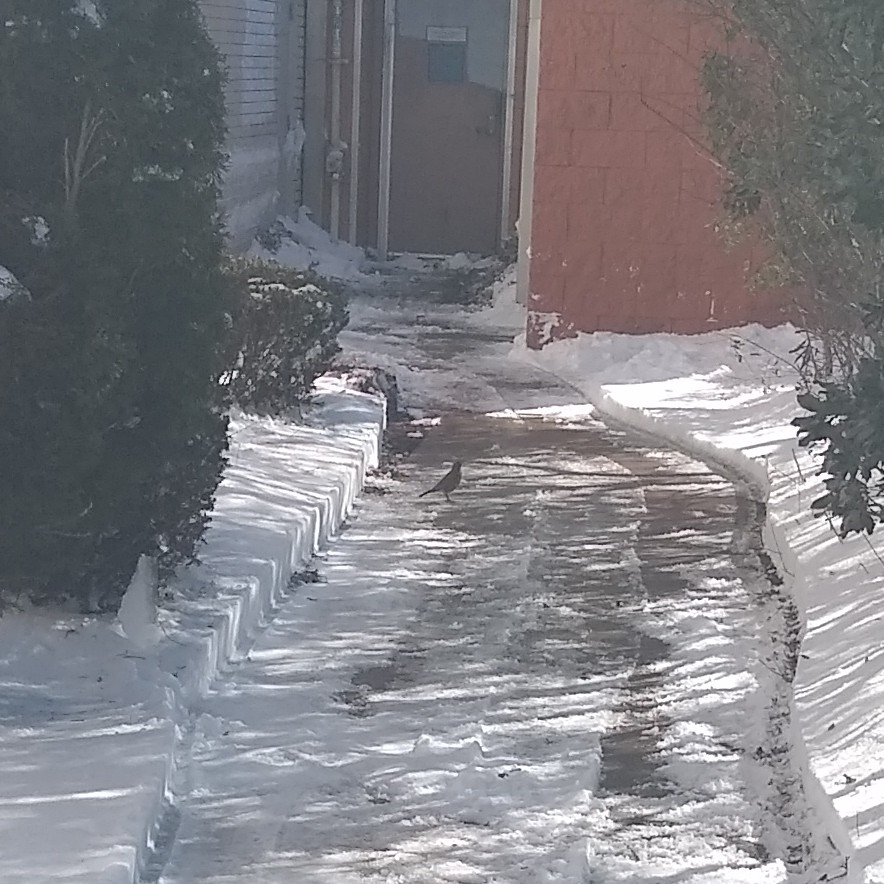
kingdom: Animalia
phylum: Chordata
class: Aves
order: Passeriformes
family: Turdidae
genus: Turdus
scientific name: Turdus migratorius
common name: American robin
